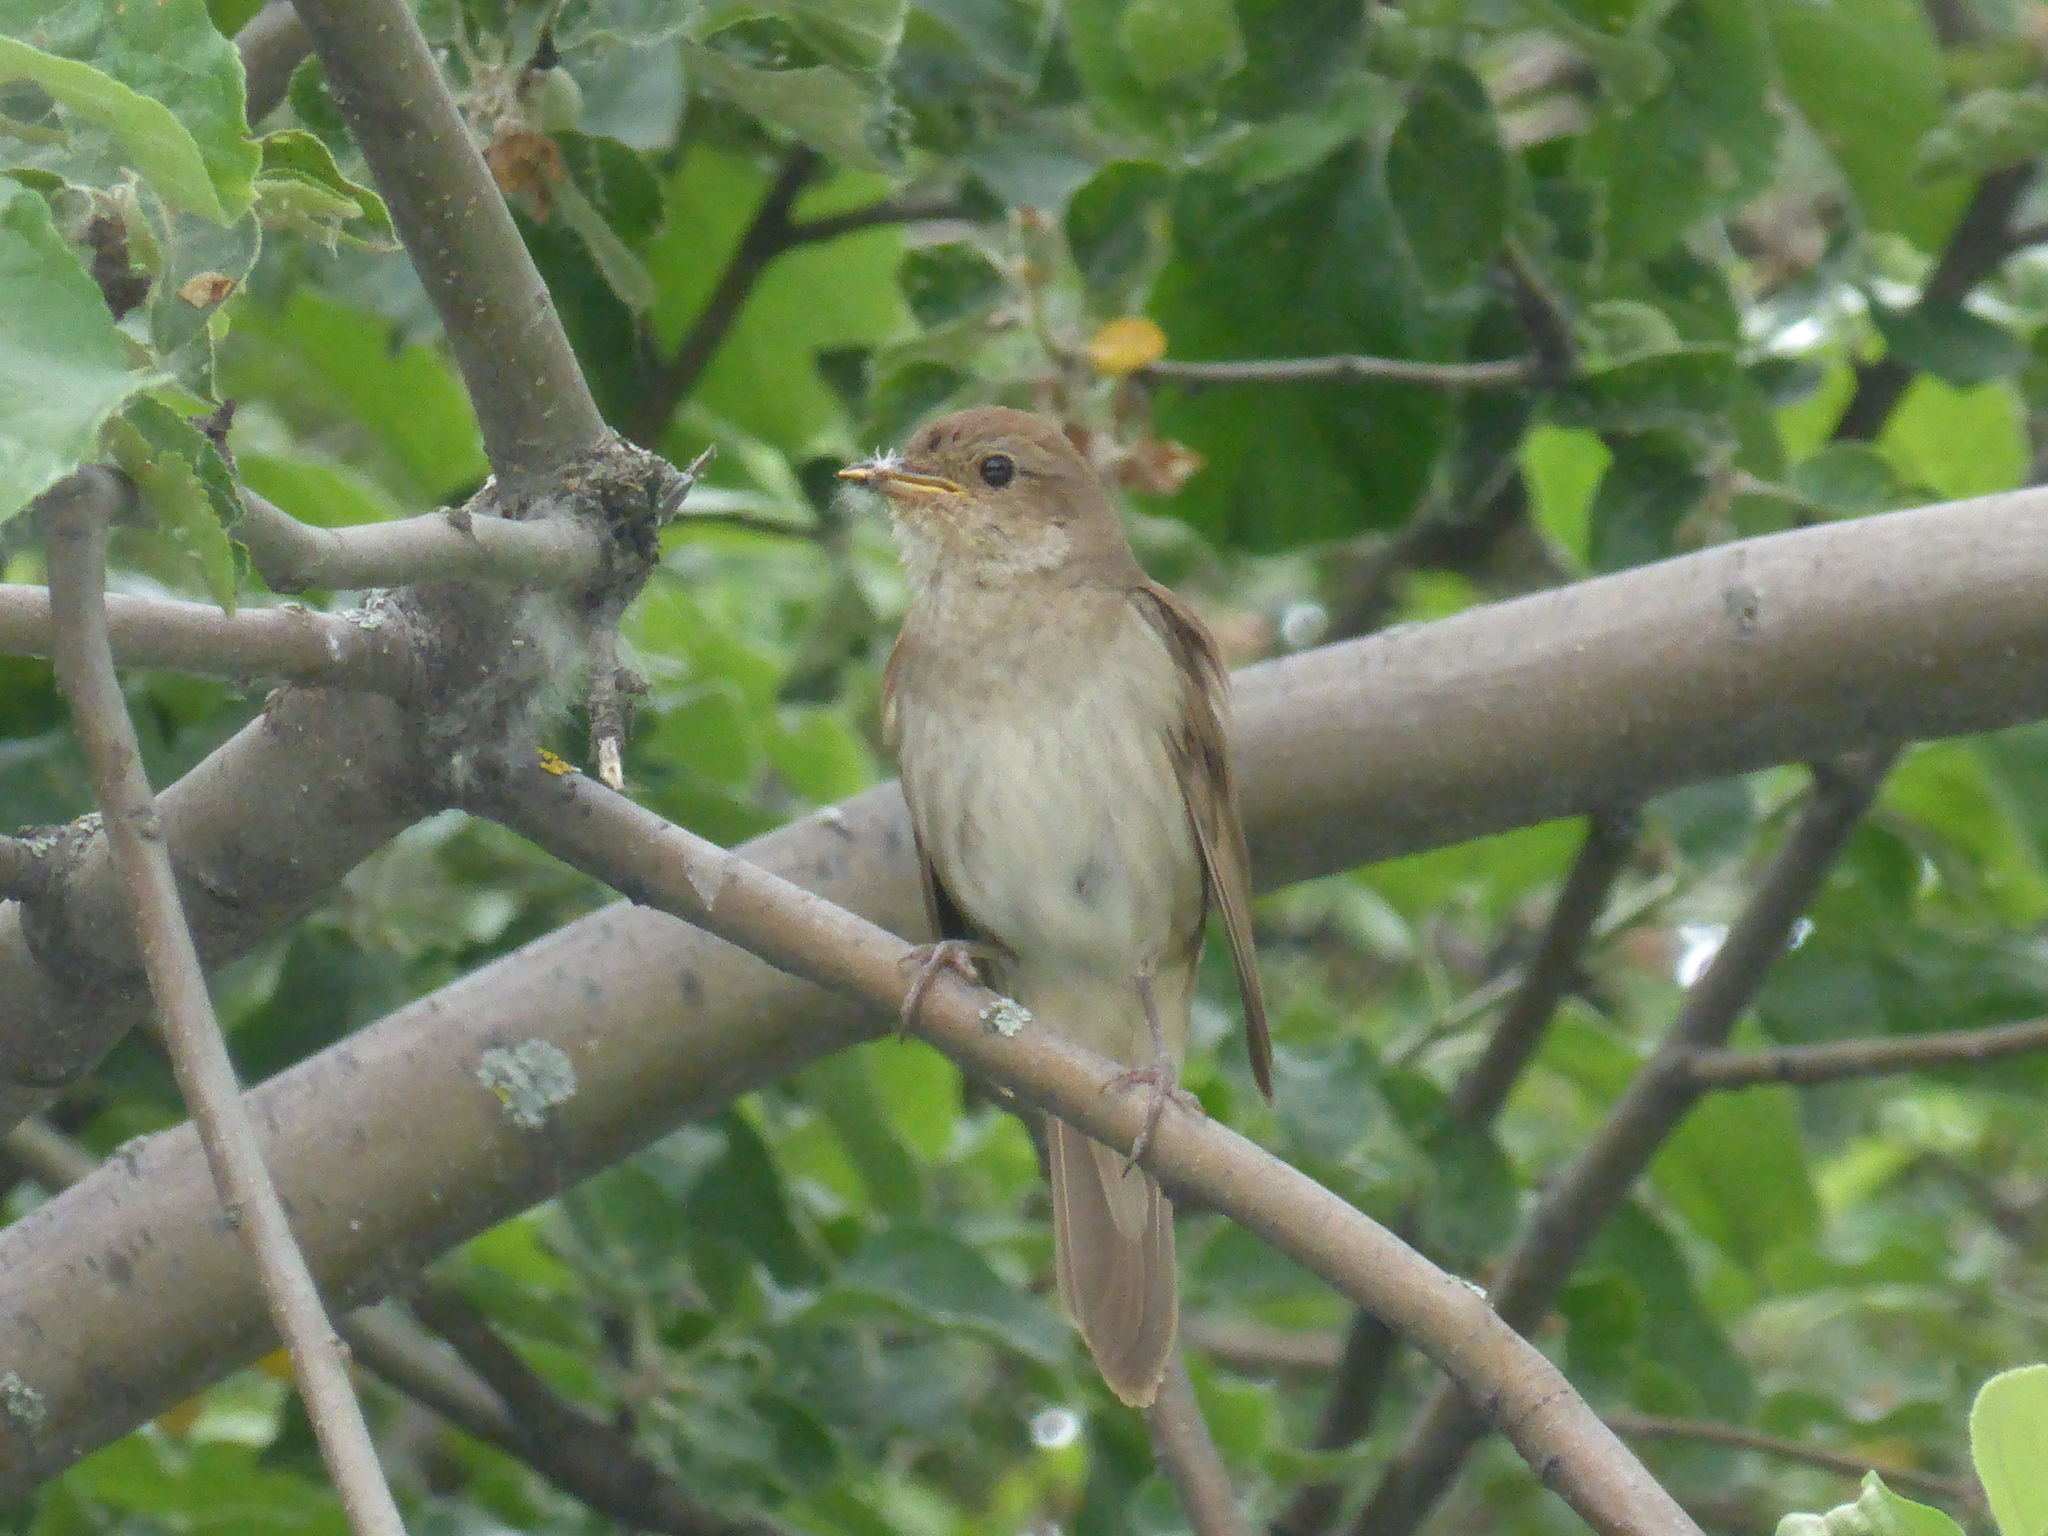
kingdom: Animalia
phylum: Chordata
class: Aves
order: Passeriformes
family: Muscicapidae
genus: Luscinia
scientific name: Luscinia luscinia
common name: Thrush nightingale
